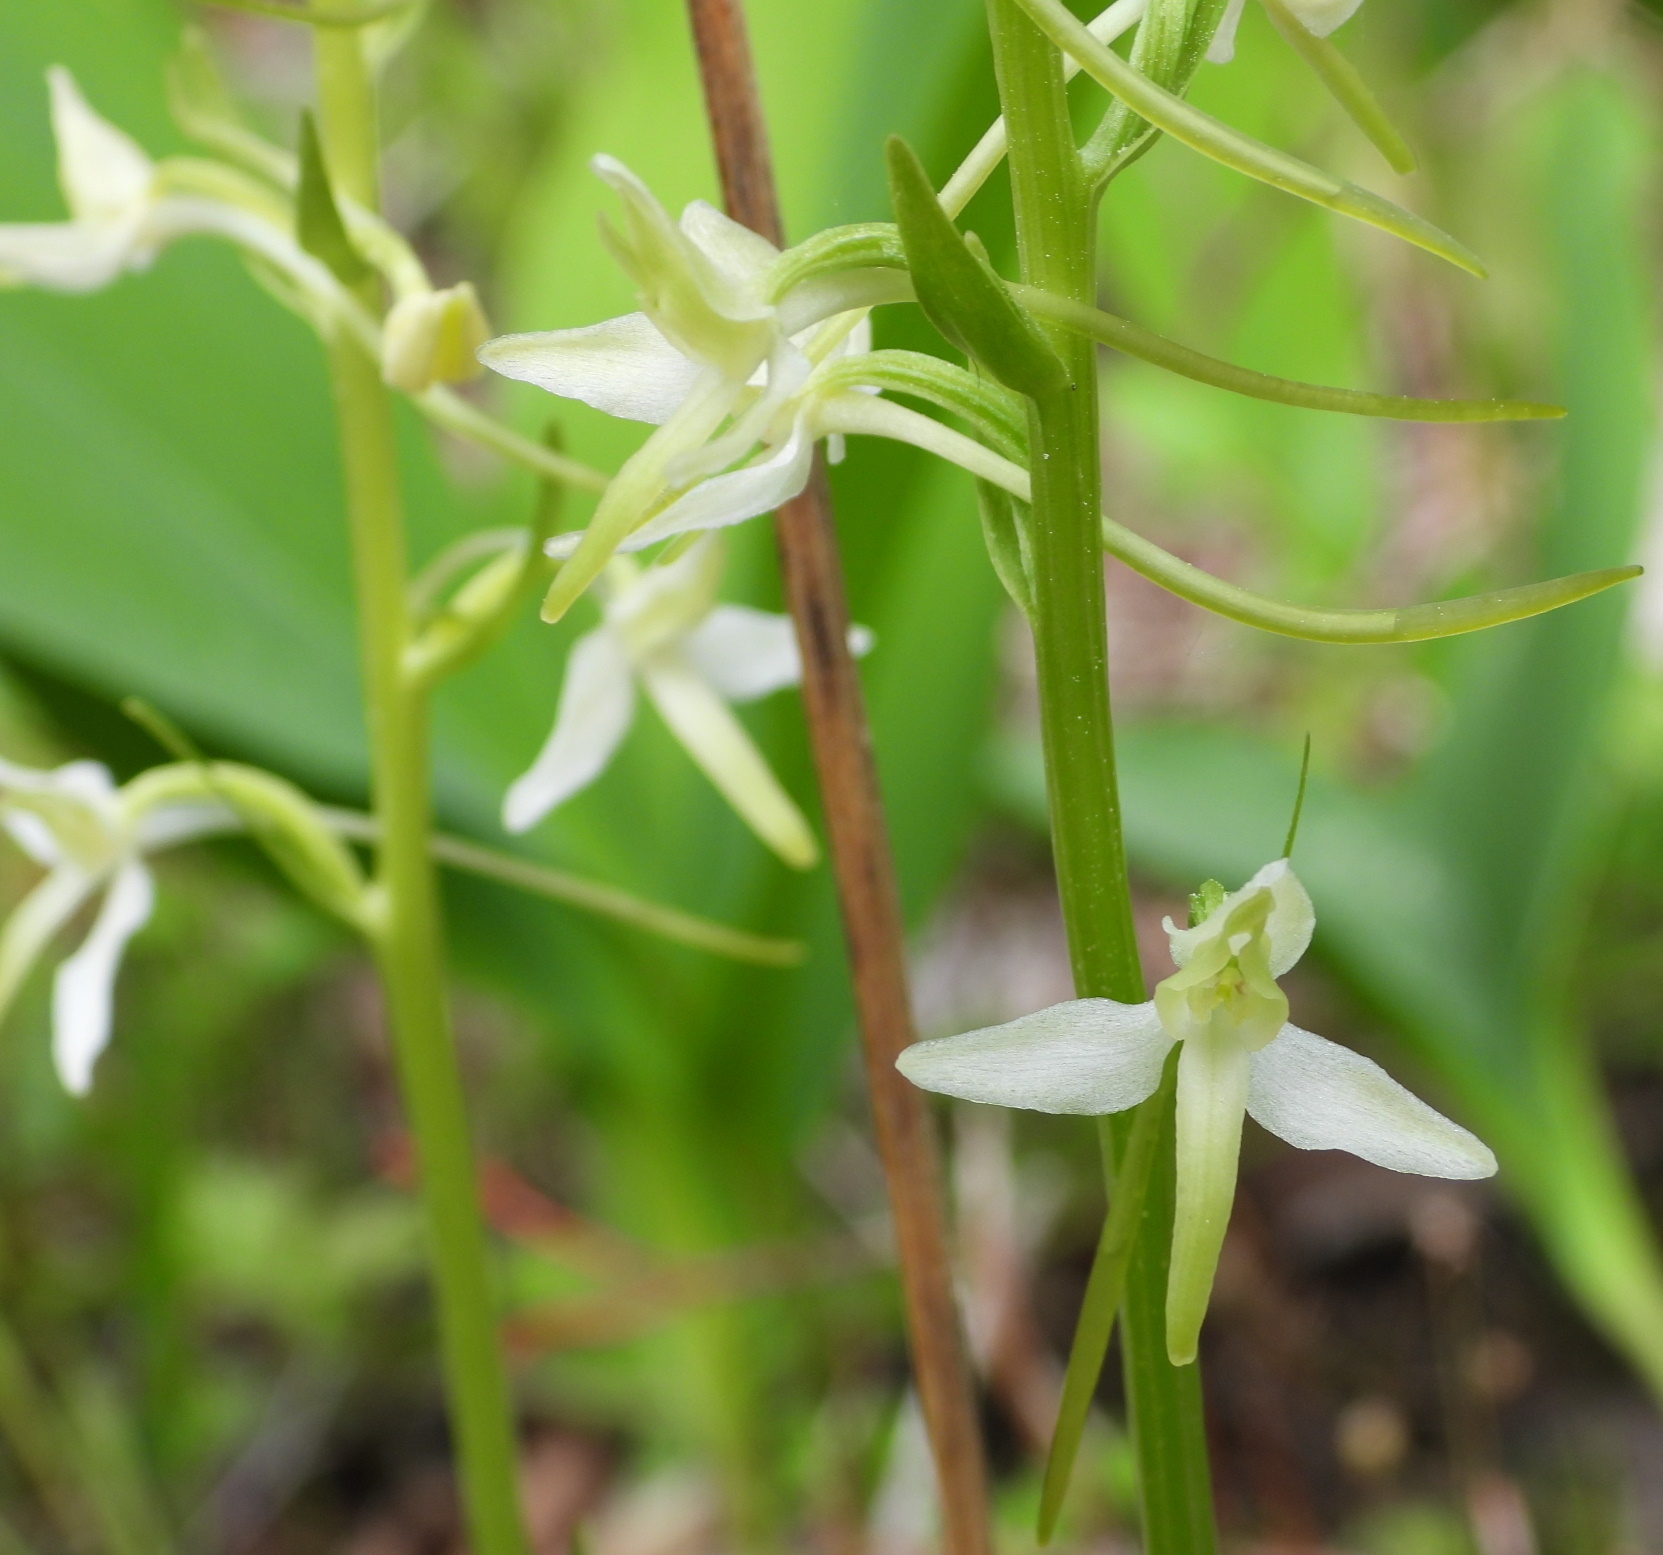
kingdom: Plantae
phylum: Tracheophyta
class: Liliopsida
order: Asparagales
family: Orchidaceae
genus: Platanthera
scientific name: Platanthera bifolia
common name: Lesser butterfly-orchid
